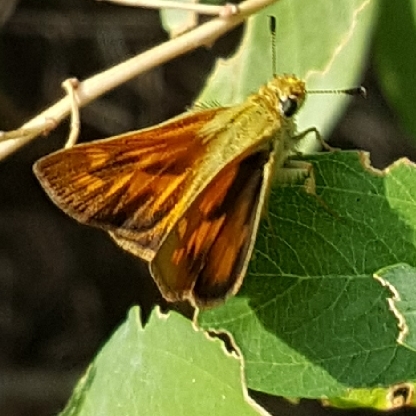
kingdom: Animalia
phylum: Arthropoda
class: Insecta
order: Lepidoptera
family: Hesperiidae
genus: Ochlodes
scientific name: Ochlodes sylvanoides
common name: Woodland skipper
